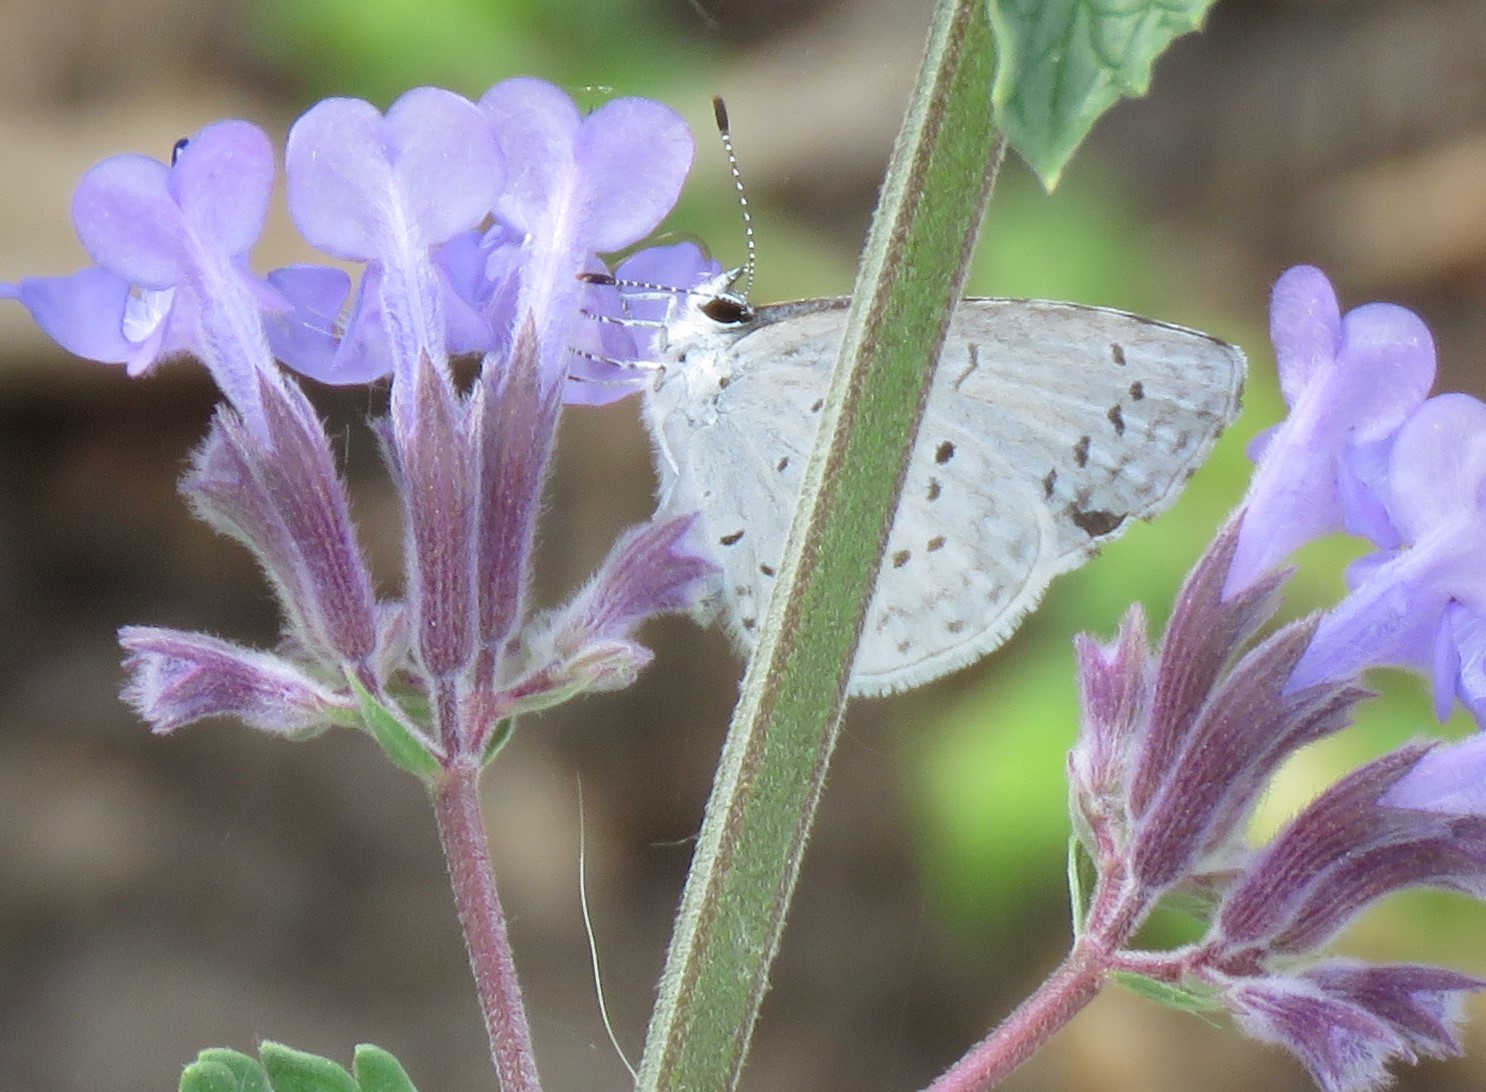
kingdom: Animalia
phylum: Arthropoda
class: Insecta
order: Lepidoptera
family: Lycaenidae
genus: Cyaniris
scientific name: Cyaniris neglecta
